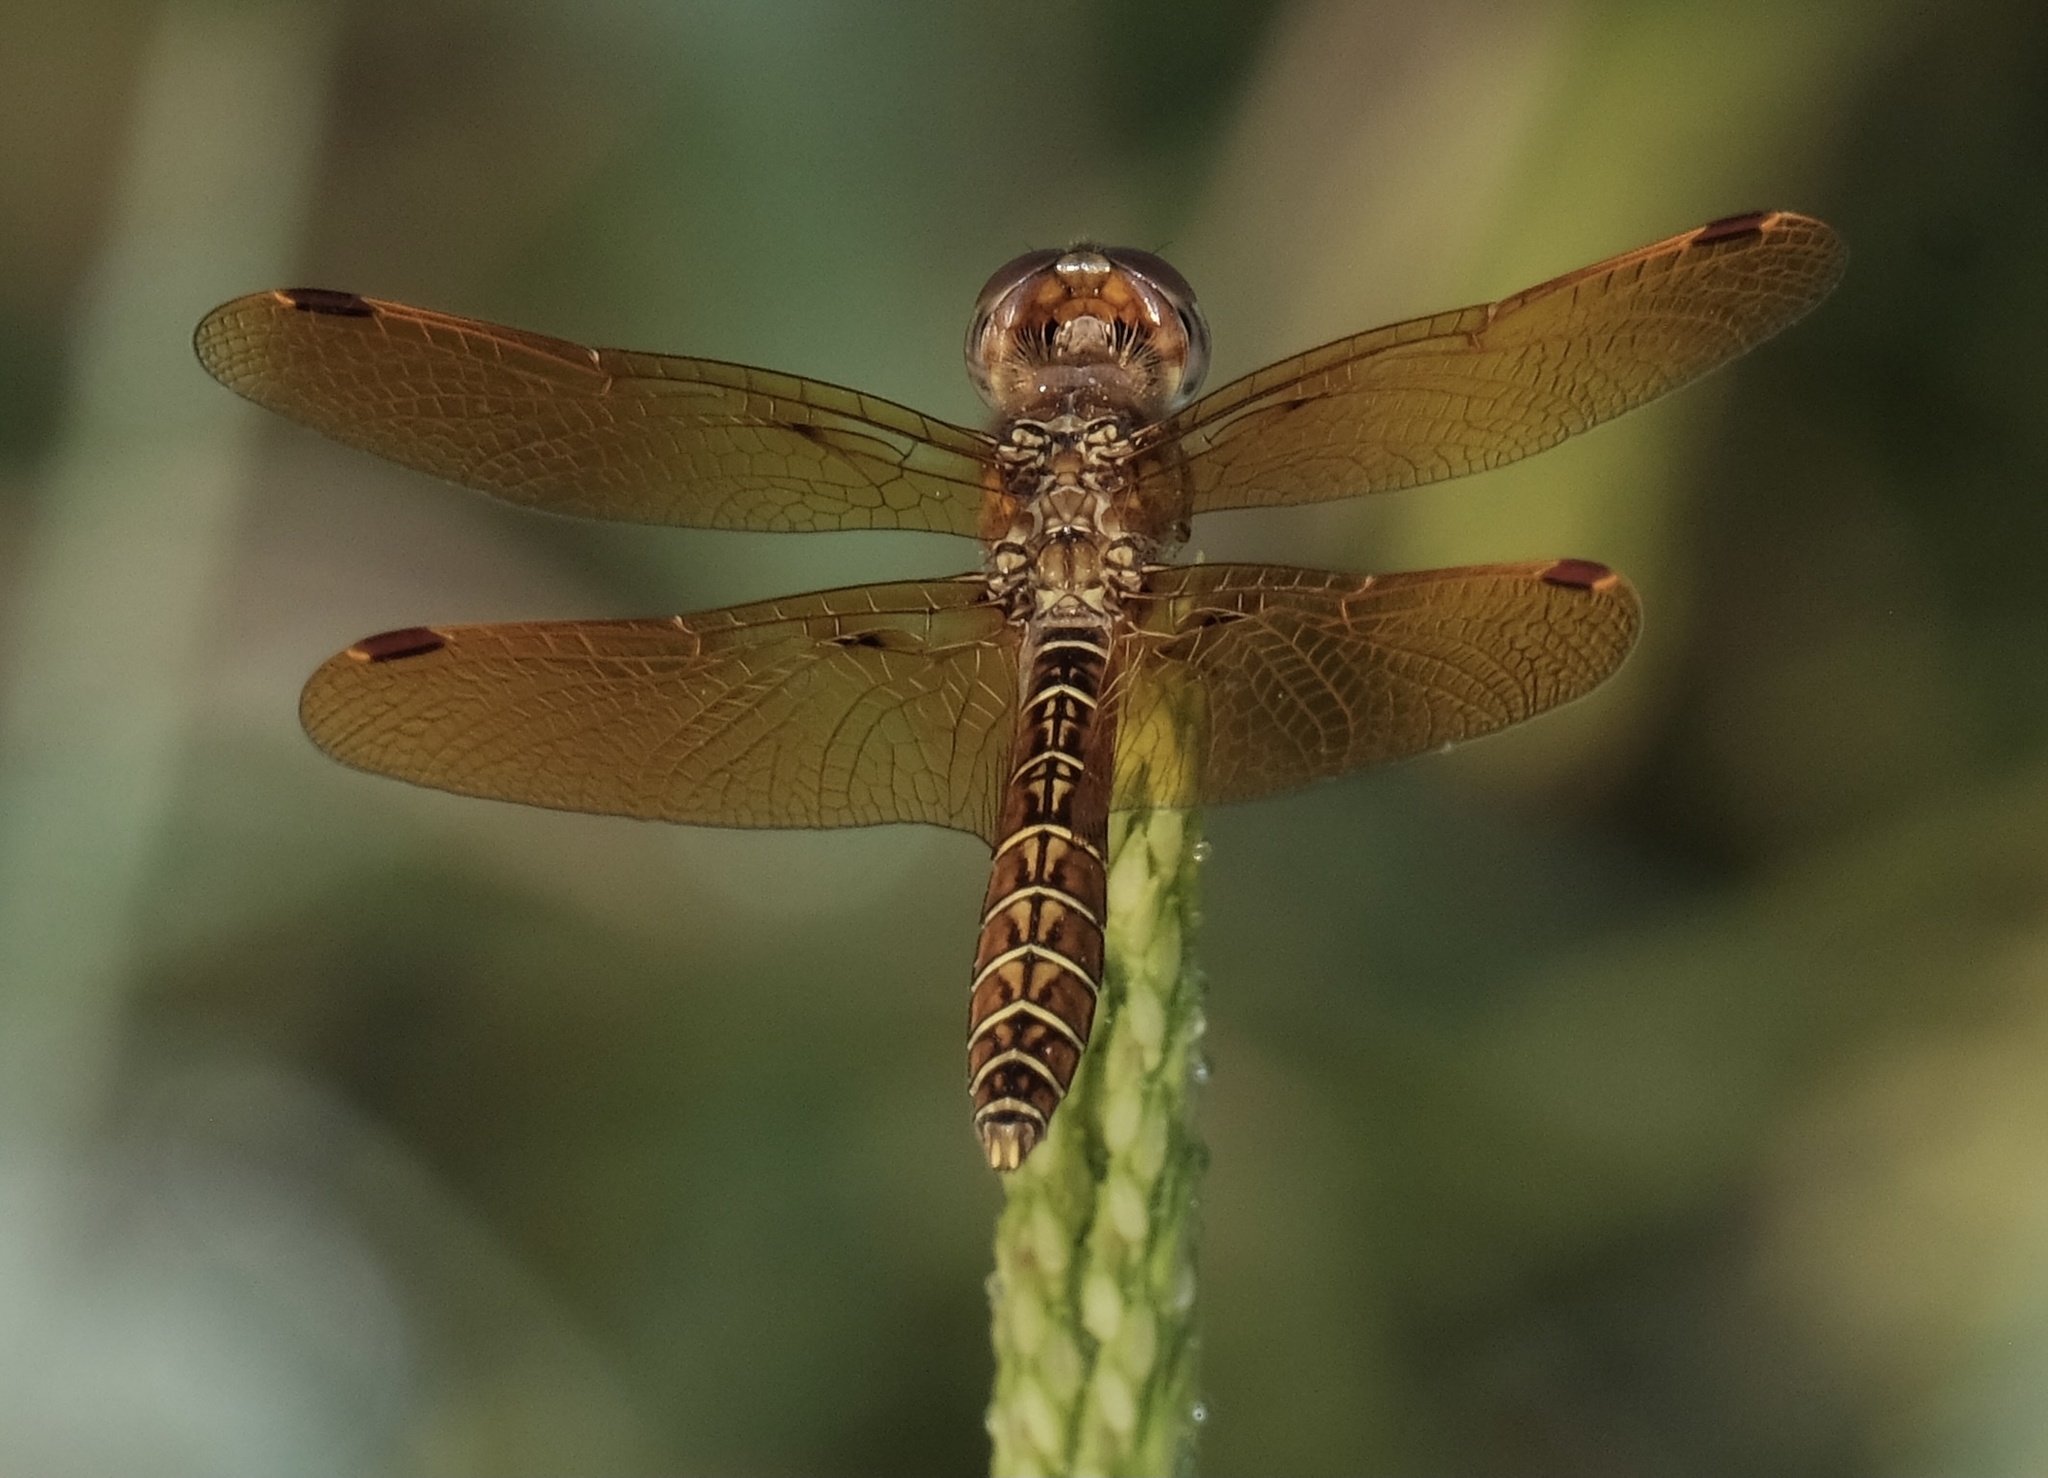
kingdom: Animalia
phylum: Arthropoda
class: Insecta
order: Odonata
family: Libellulidae
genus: Perithemis
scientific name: Perithemis tenera
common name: Eastern amberwing
